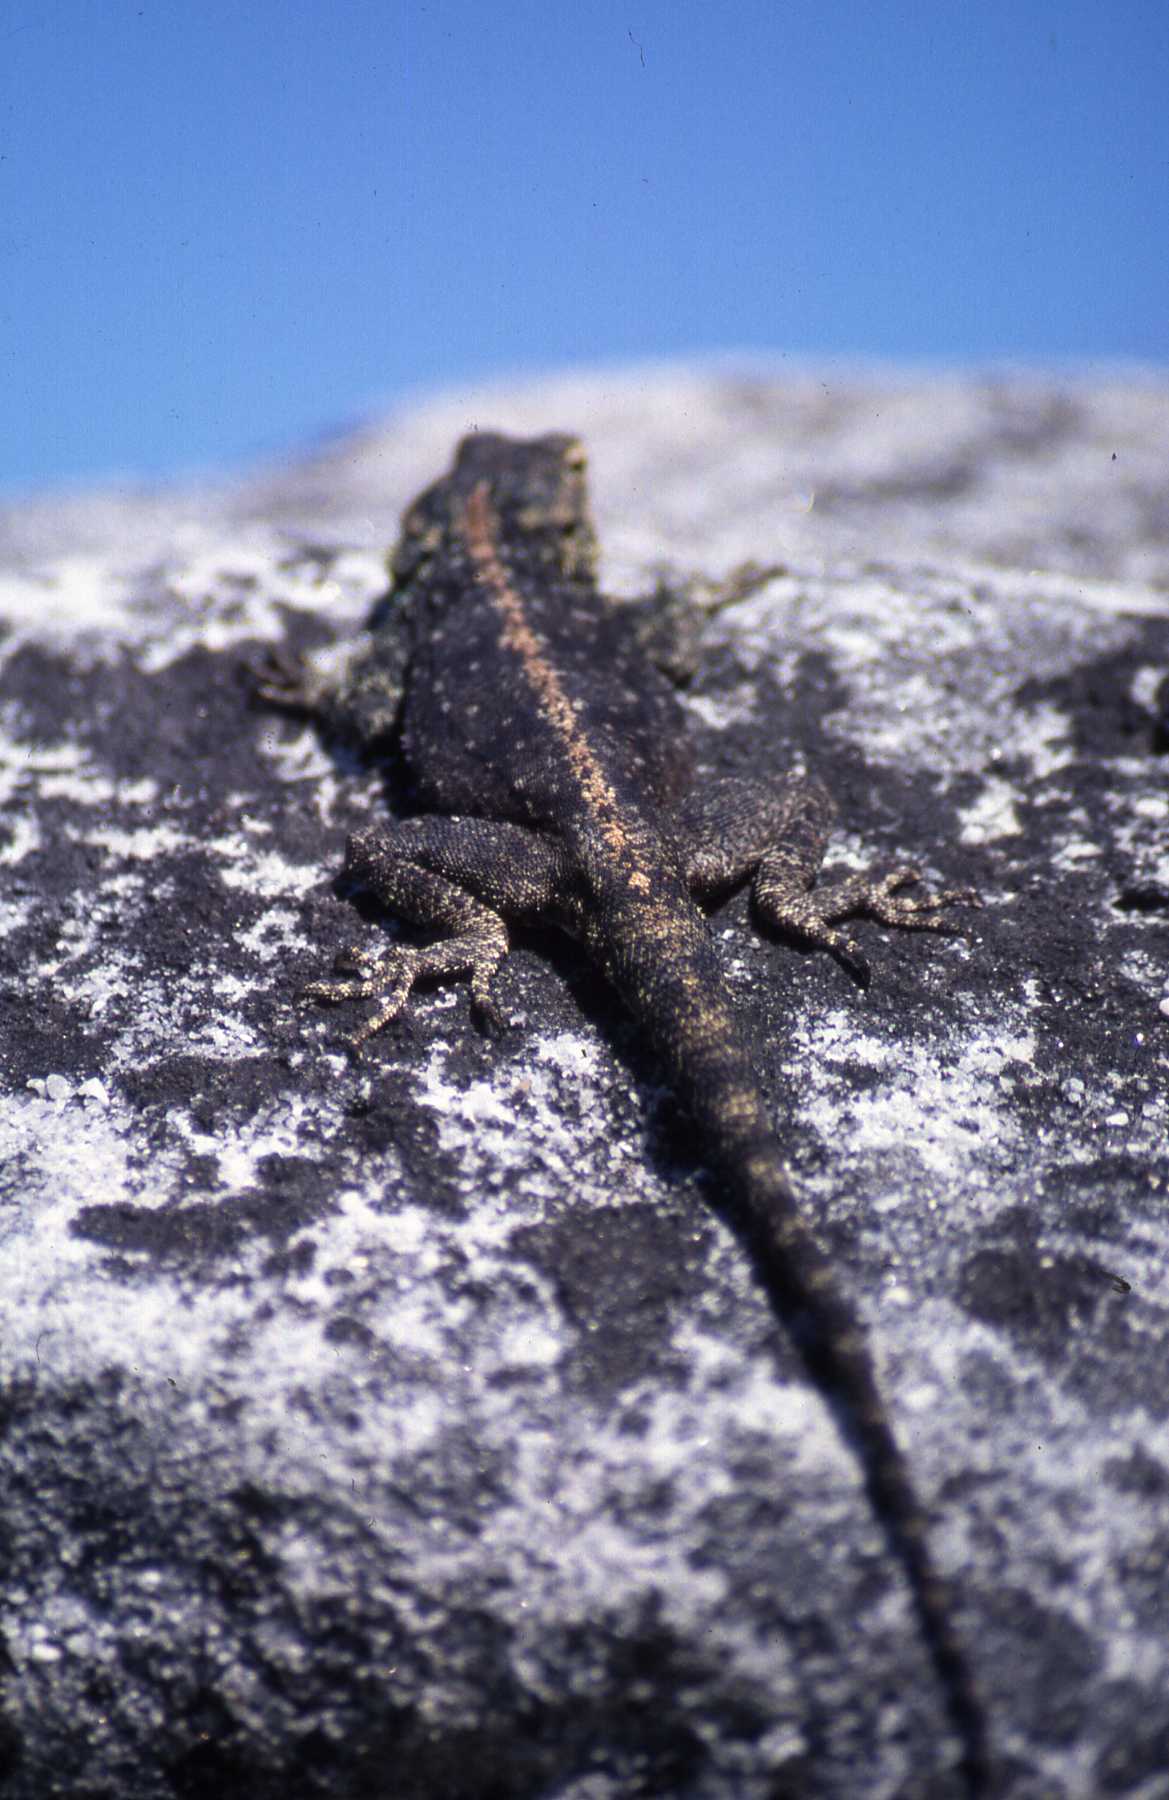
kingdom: Animalia
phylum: Chordata
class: Squamata
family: Agamidae
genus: Agama
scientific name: Agama atra
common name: Southern african rock agama
